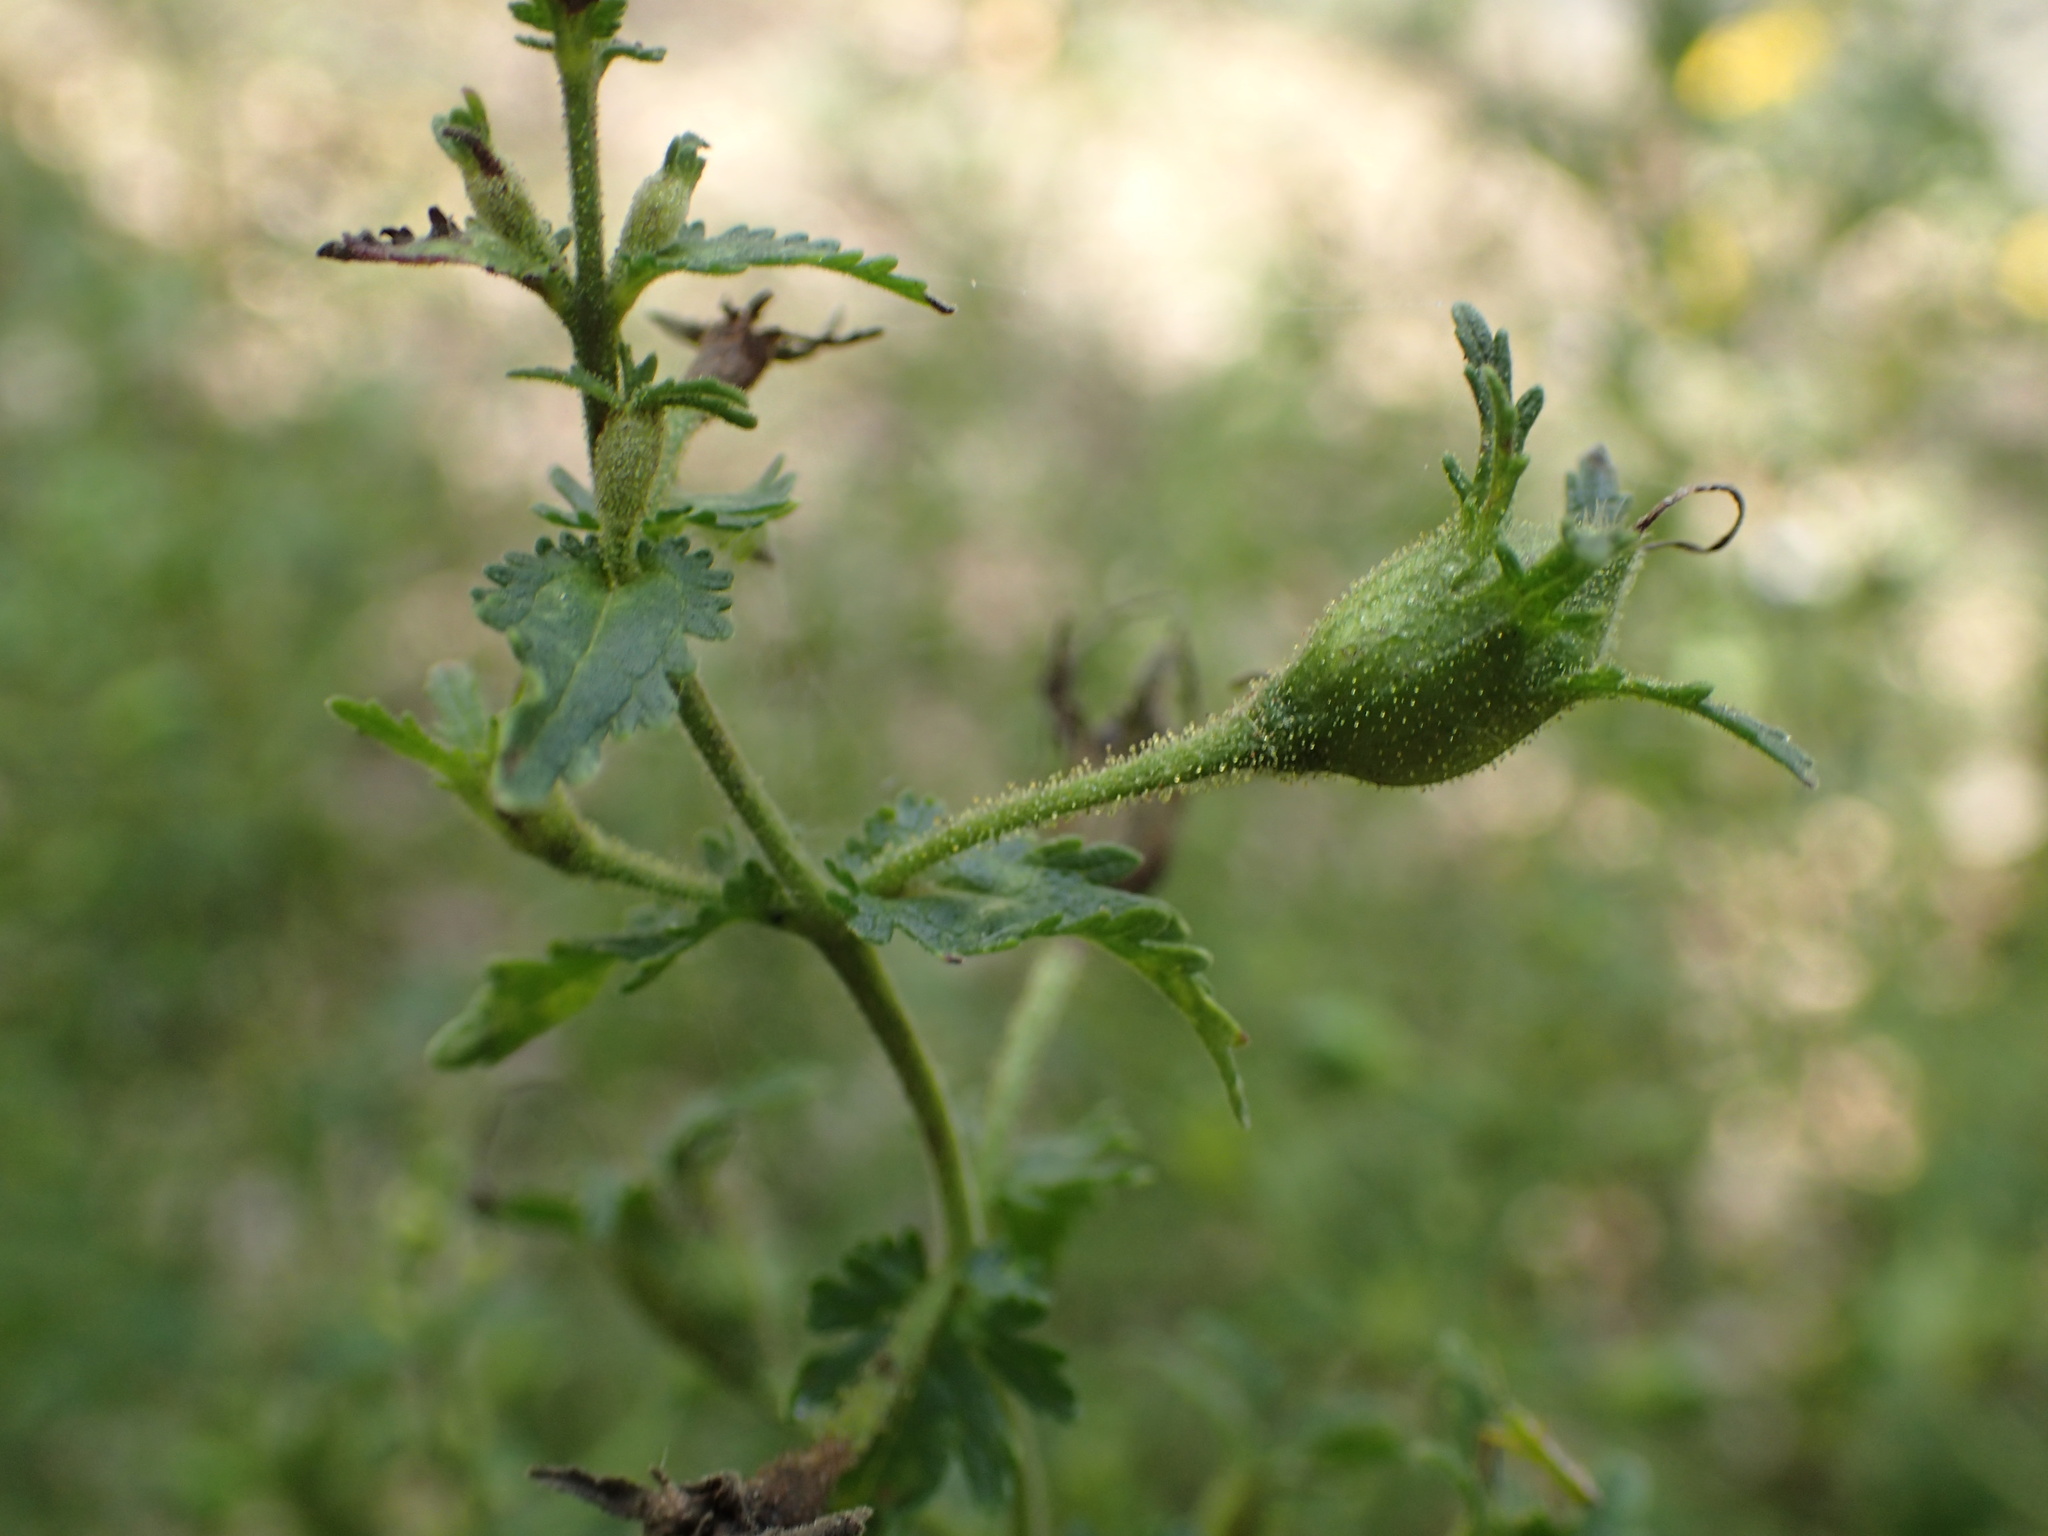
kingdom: Plantae
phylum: Tracheophyta
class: Magnoliopsida
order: Lamiales
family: Orobanchaceae
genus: Aureolaria
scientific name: Aureolaria pedicularia
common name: Annual false foxglove
